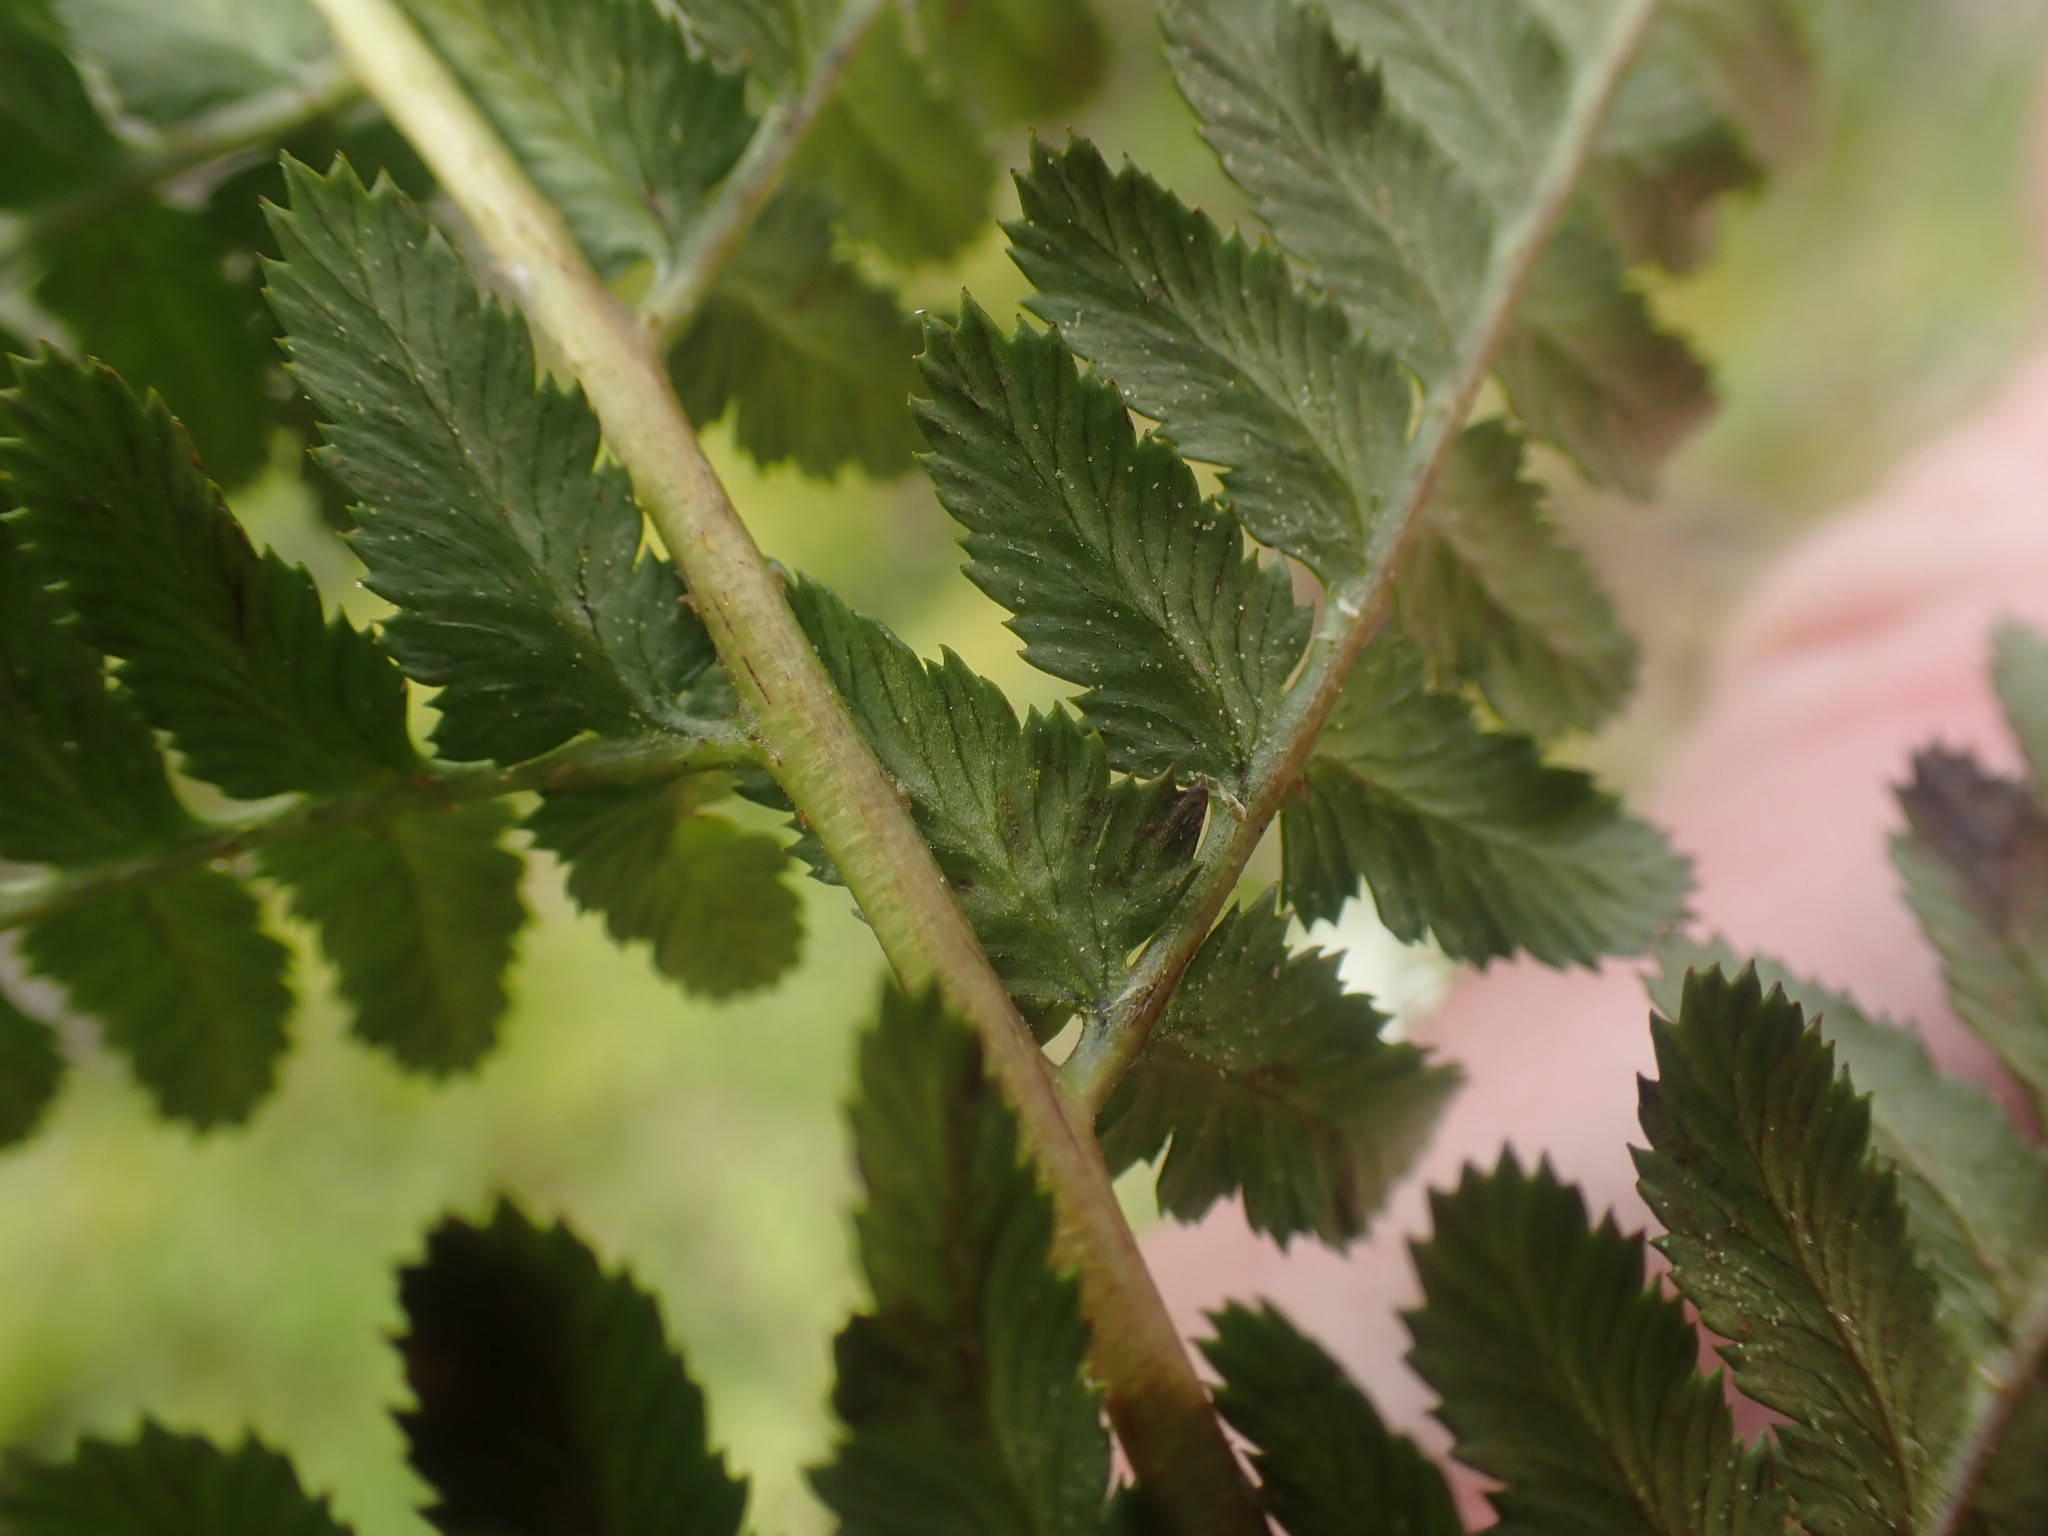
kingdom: Plantae
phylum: Tracheophyta
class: Polypodiopsida
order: Polypodiales
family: Dryopteridaceae
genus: Dryopteris
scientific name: Dryopteris arguta
